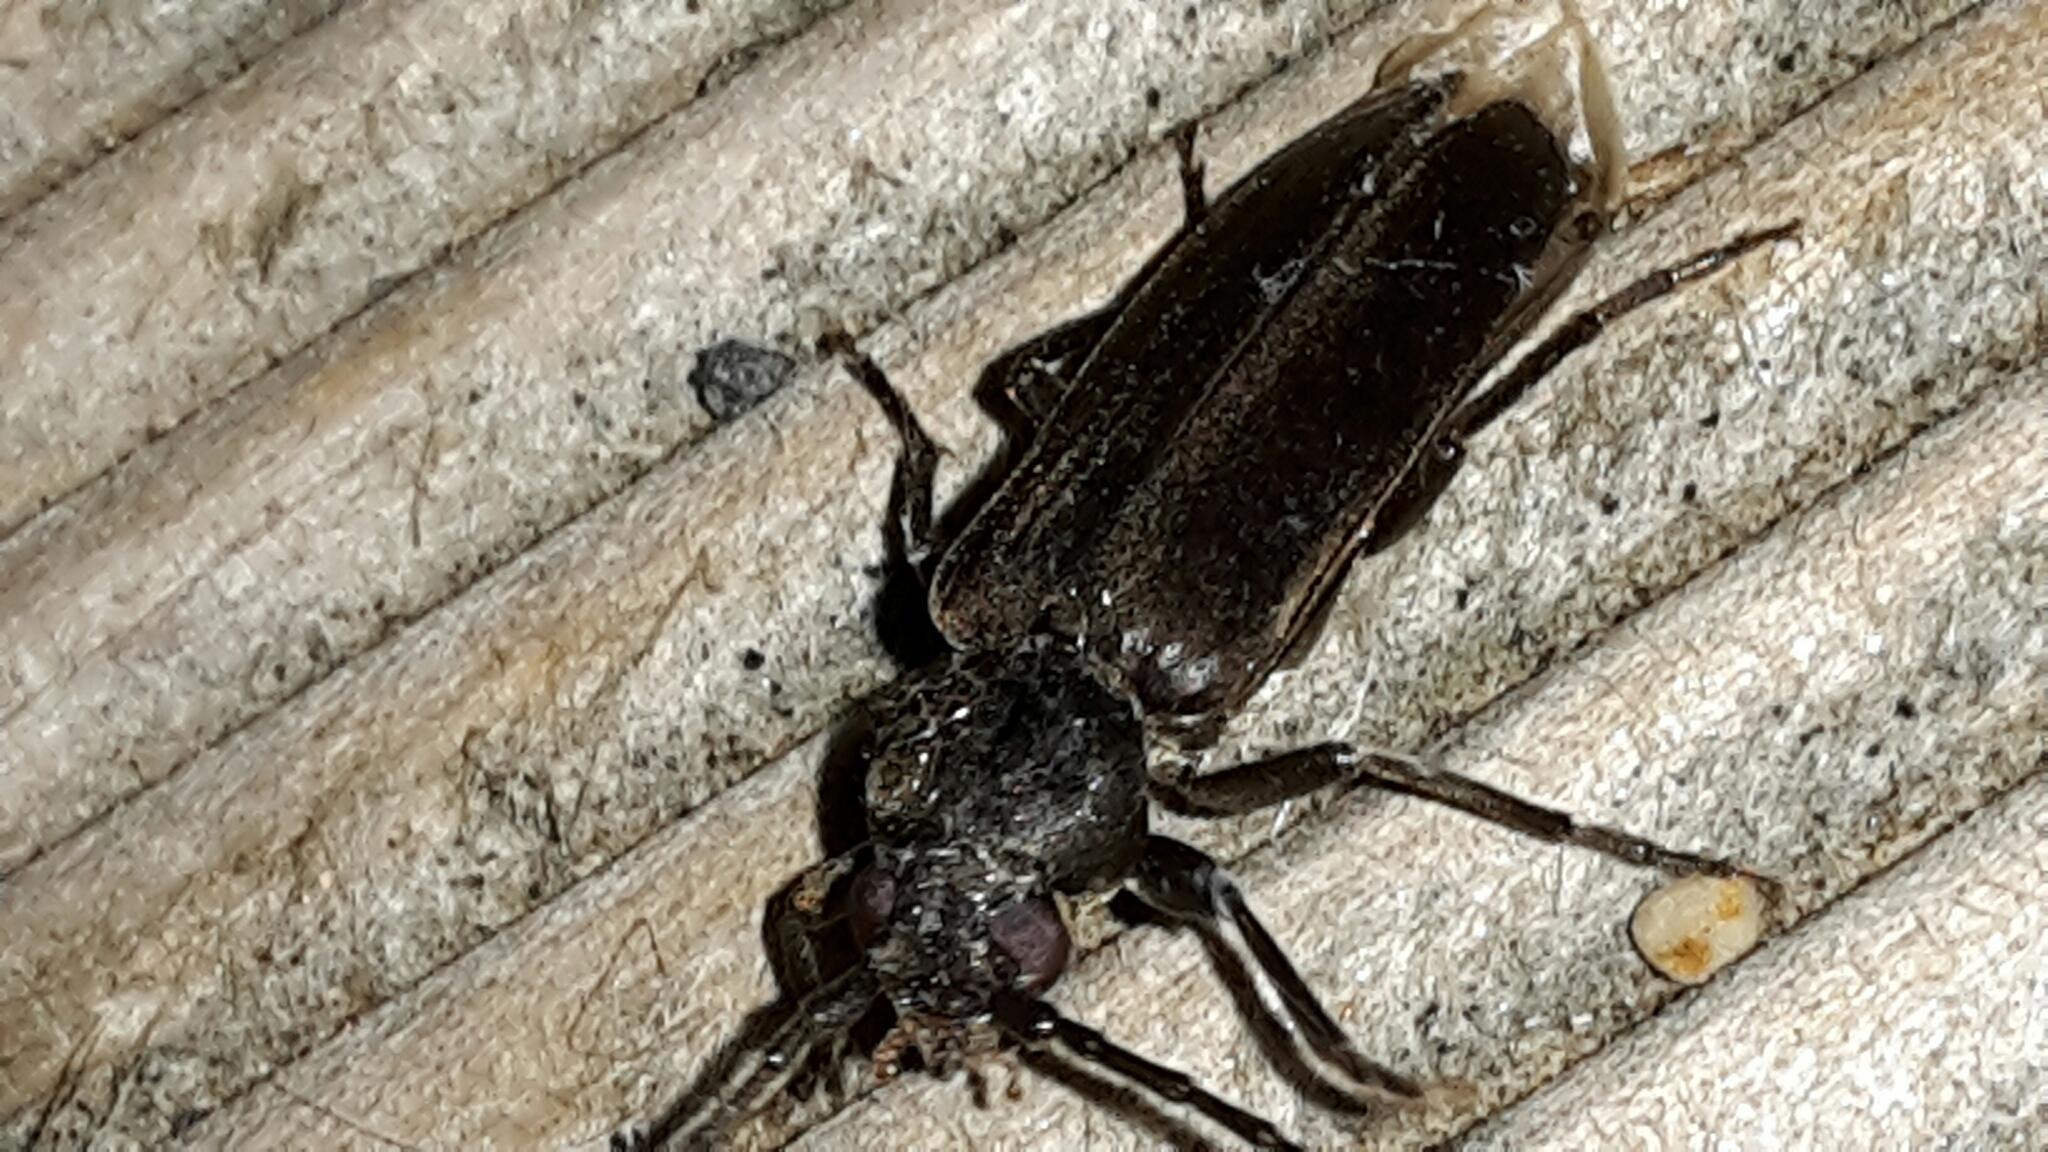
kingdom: Animalia
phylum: Arthropoda
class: Insecta
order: Coleoptera
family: Cerambycidae
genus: Arhopalus
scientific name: Arhopalus ferus
